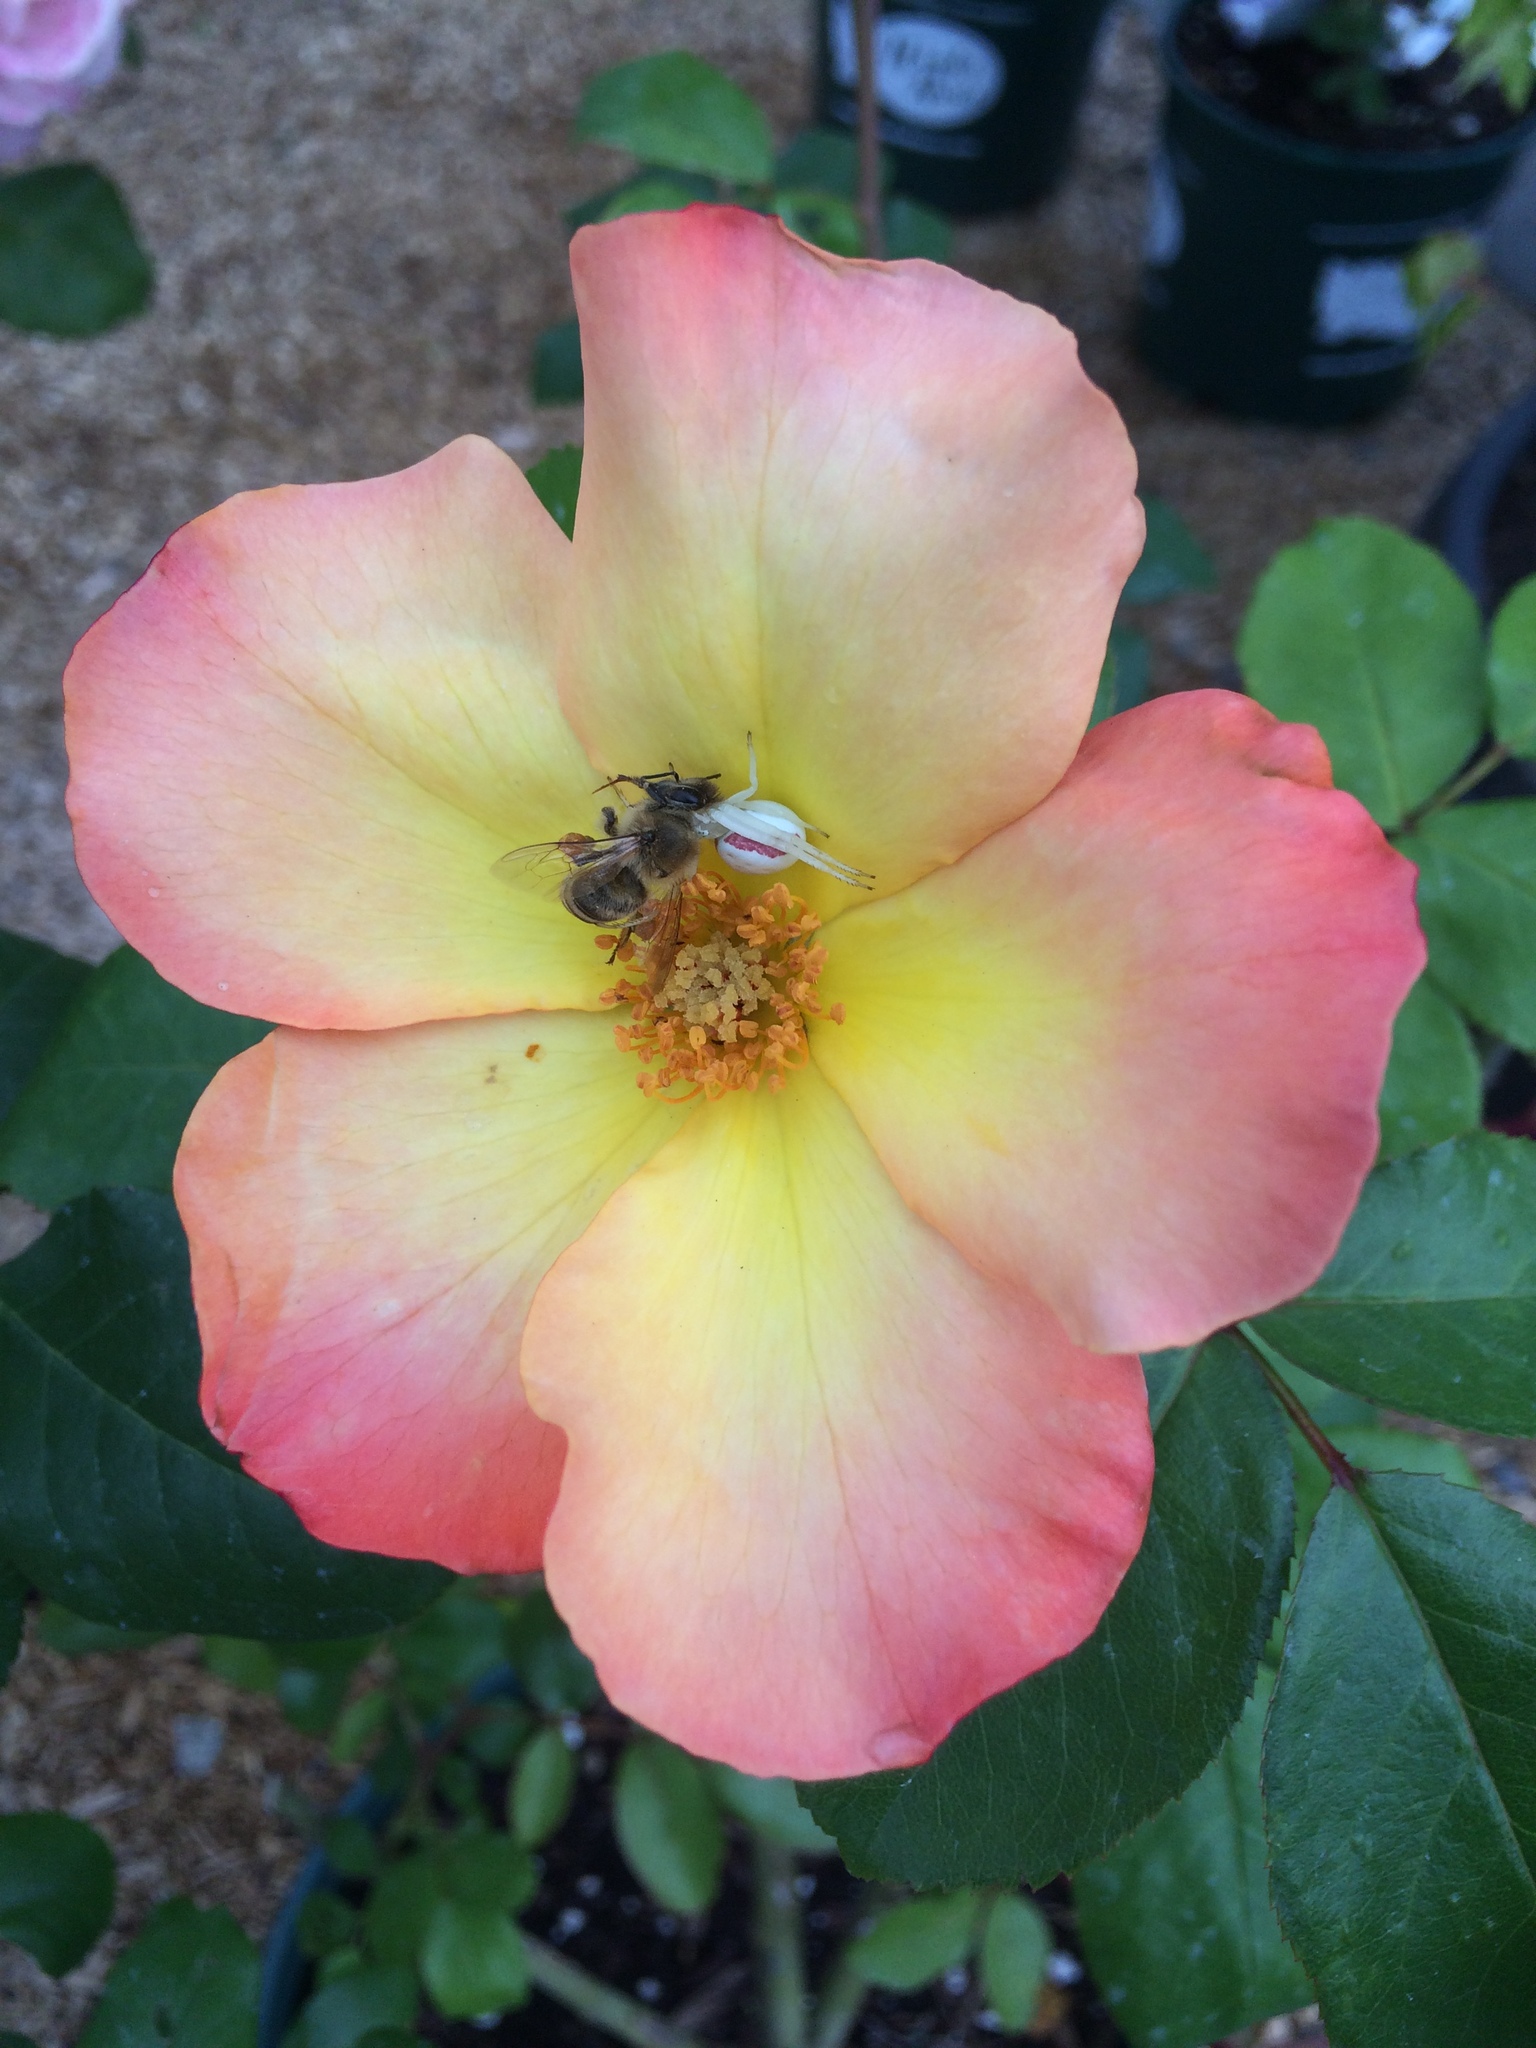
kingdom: Animalia
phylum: Arthropoda
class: Insecta
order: Hymenoptera
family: Apidae
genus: Apis
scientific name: Apis mellifera
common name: Honey bee
